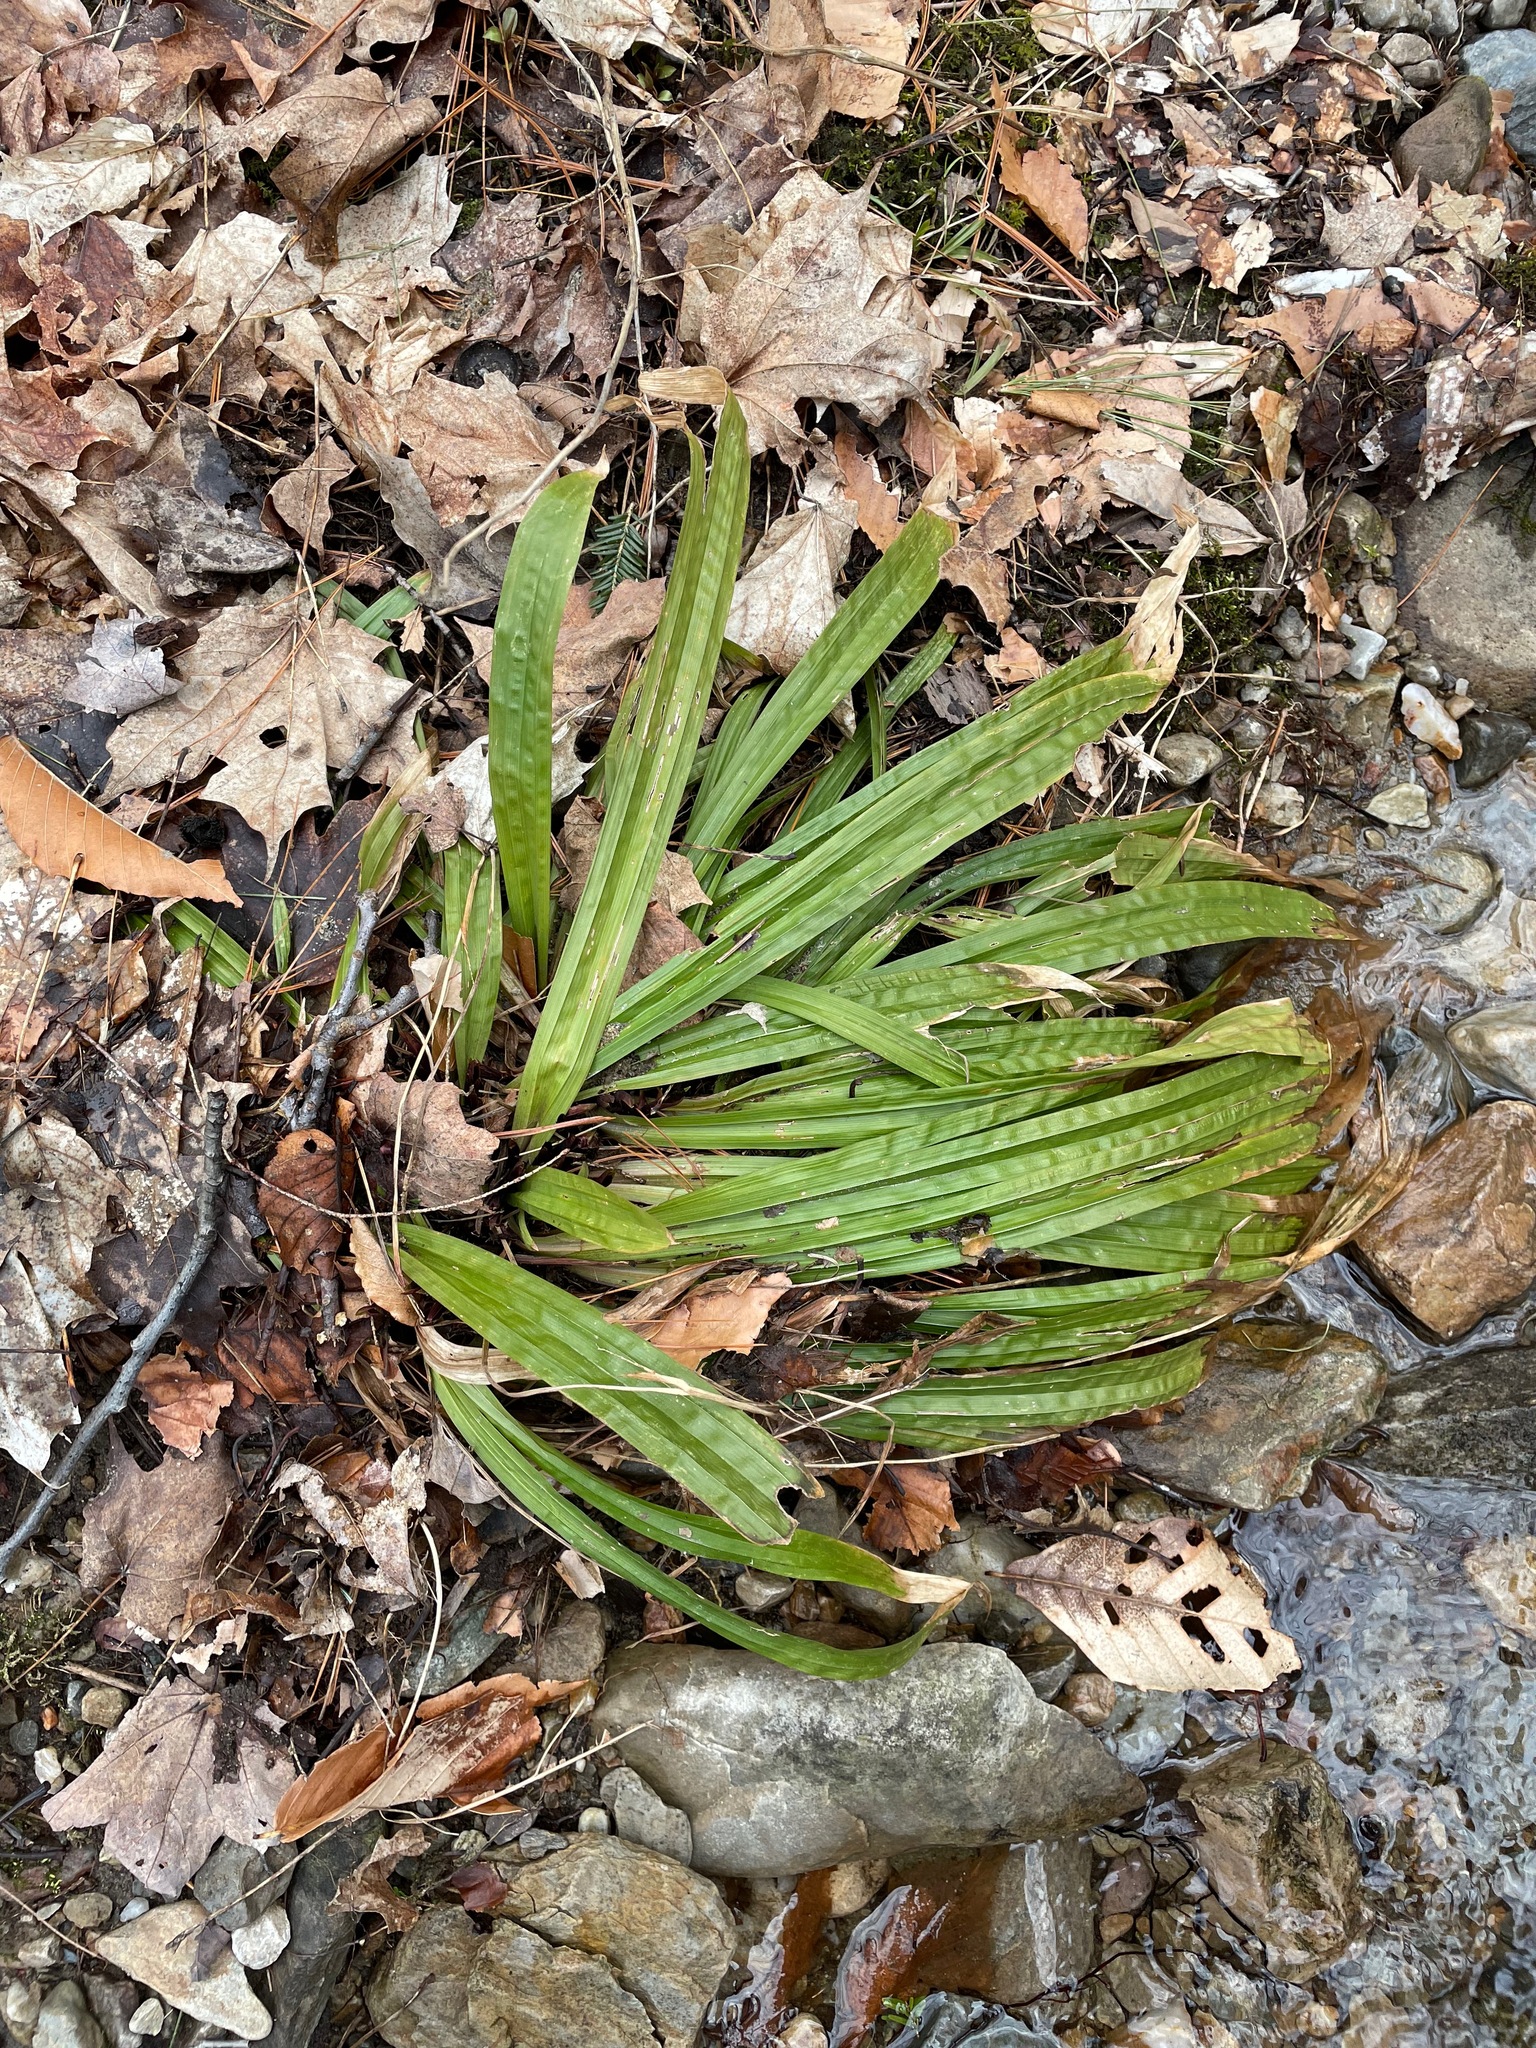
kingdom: Plantae
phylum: Tracheophyta
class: Liliopsida
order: Poales
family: Cyperaceae
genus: Carex
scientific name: Carex plantaginea
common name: Plantain-leaved sedge
